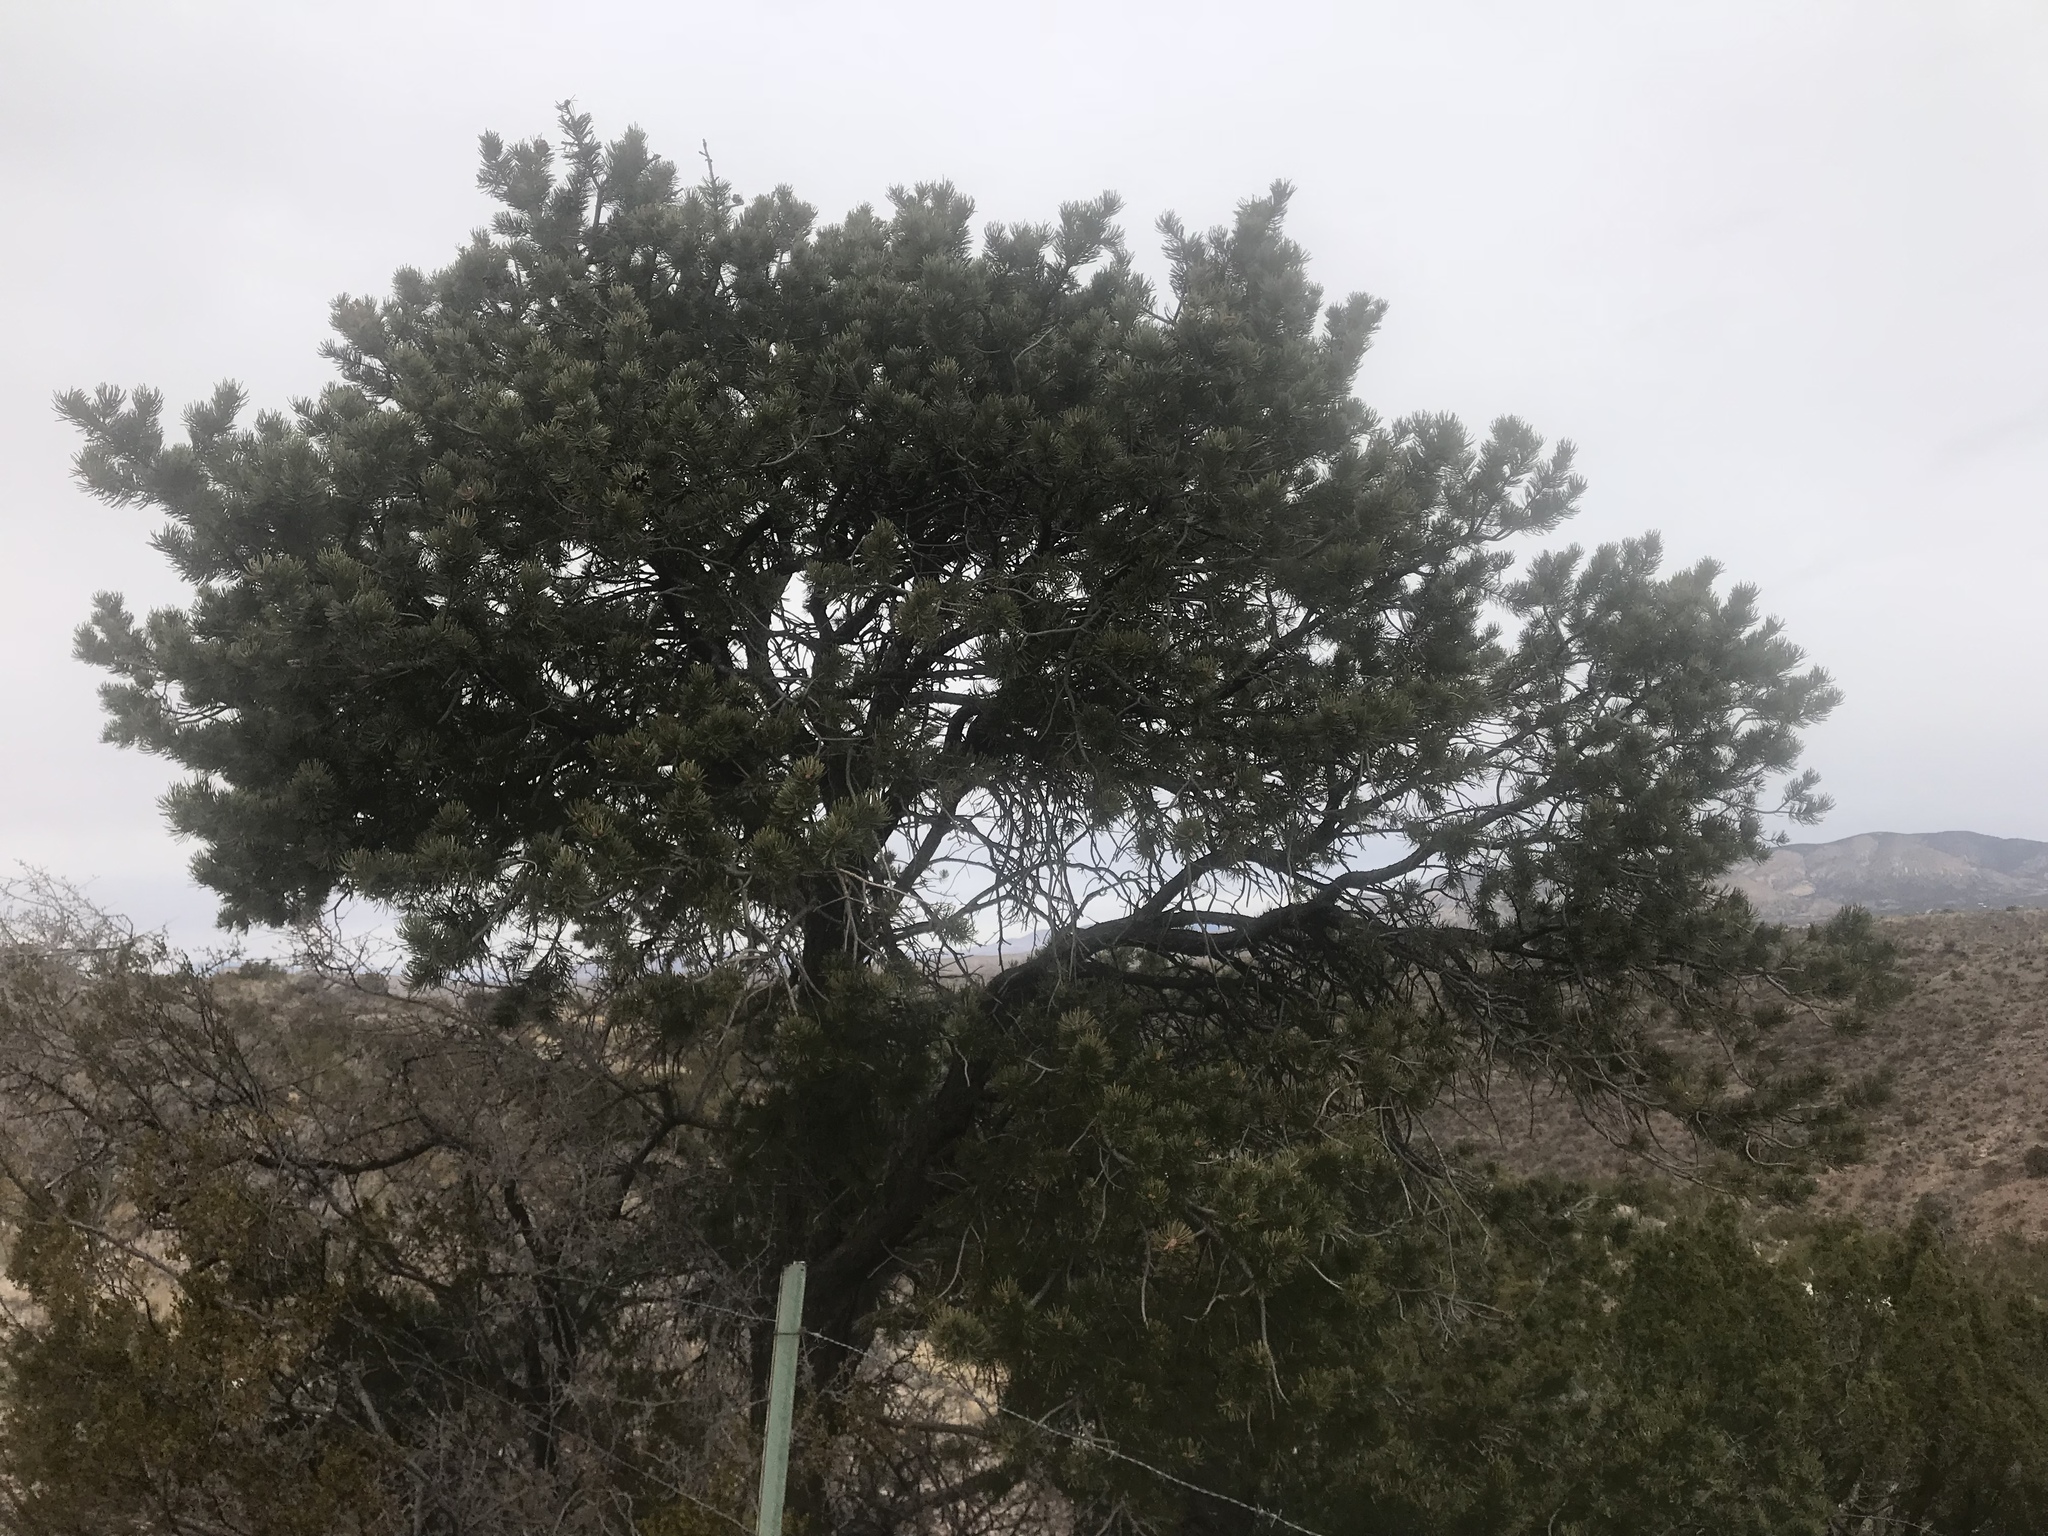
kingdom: Plantae
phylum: Tracheophyta
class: Pinopsida
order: Pinales
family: Pinaceae
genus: Pinus
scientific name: Pinus edulis
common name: Colorado pinyon
